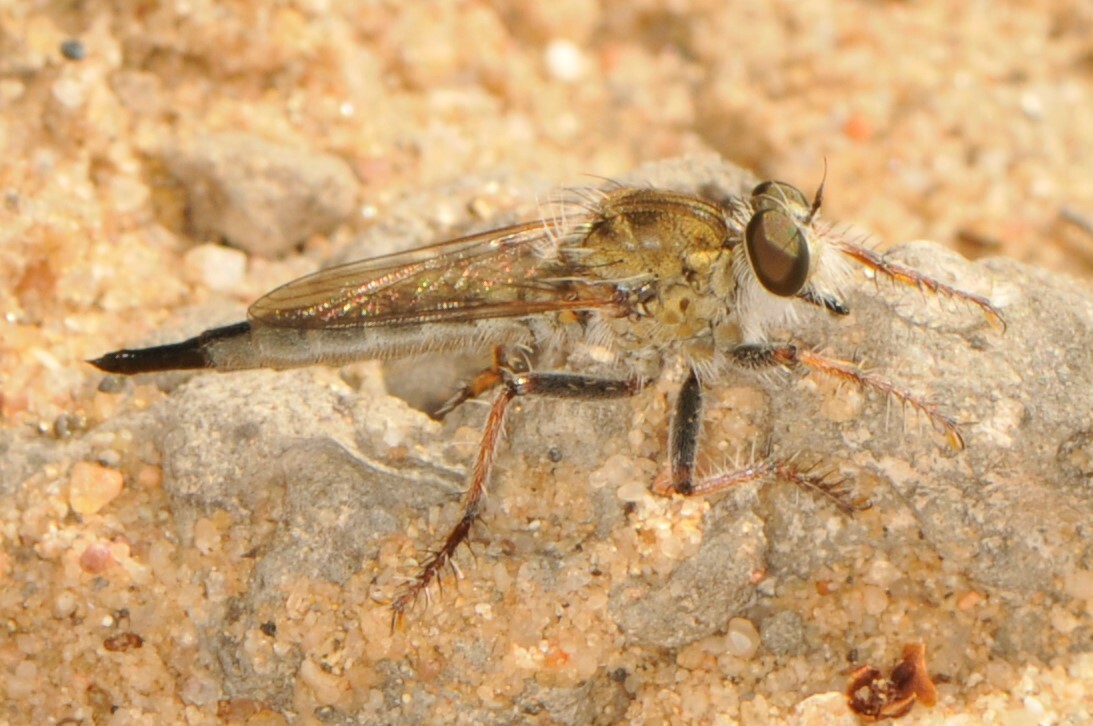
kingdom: Animalia
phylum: Arthropoda
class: Insecta
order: Diptera
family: Asilidae
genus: Efferia
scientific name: Efferia
